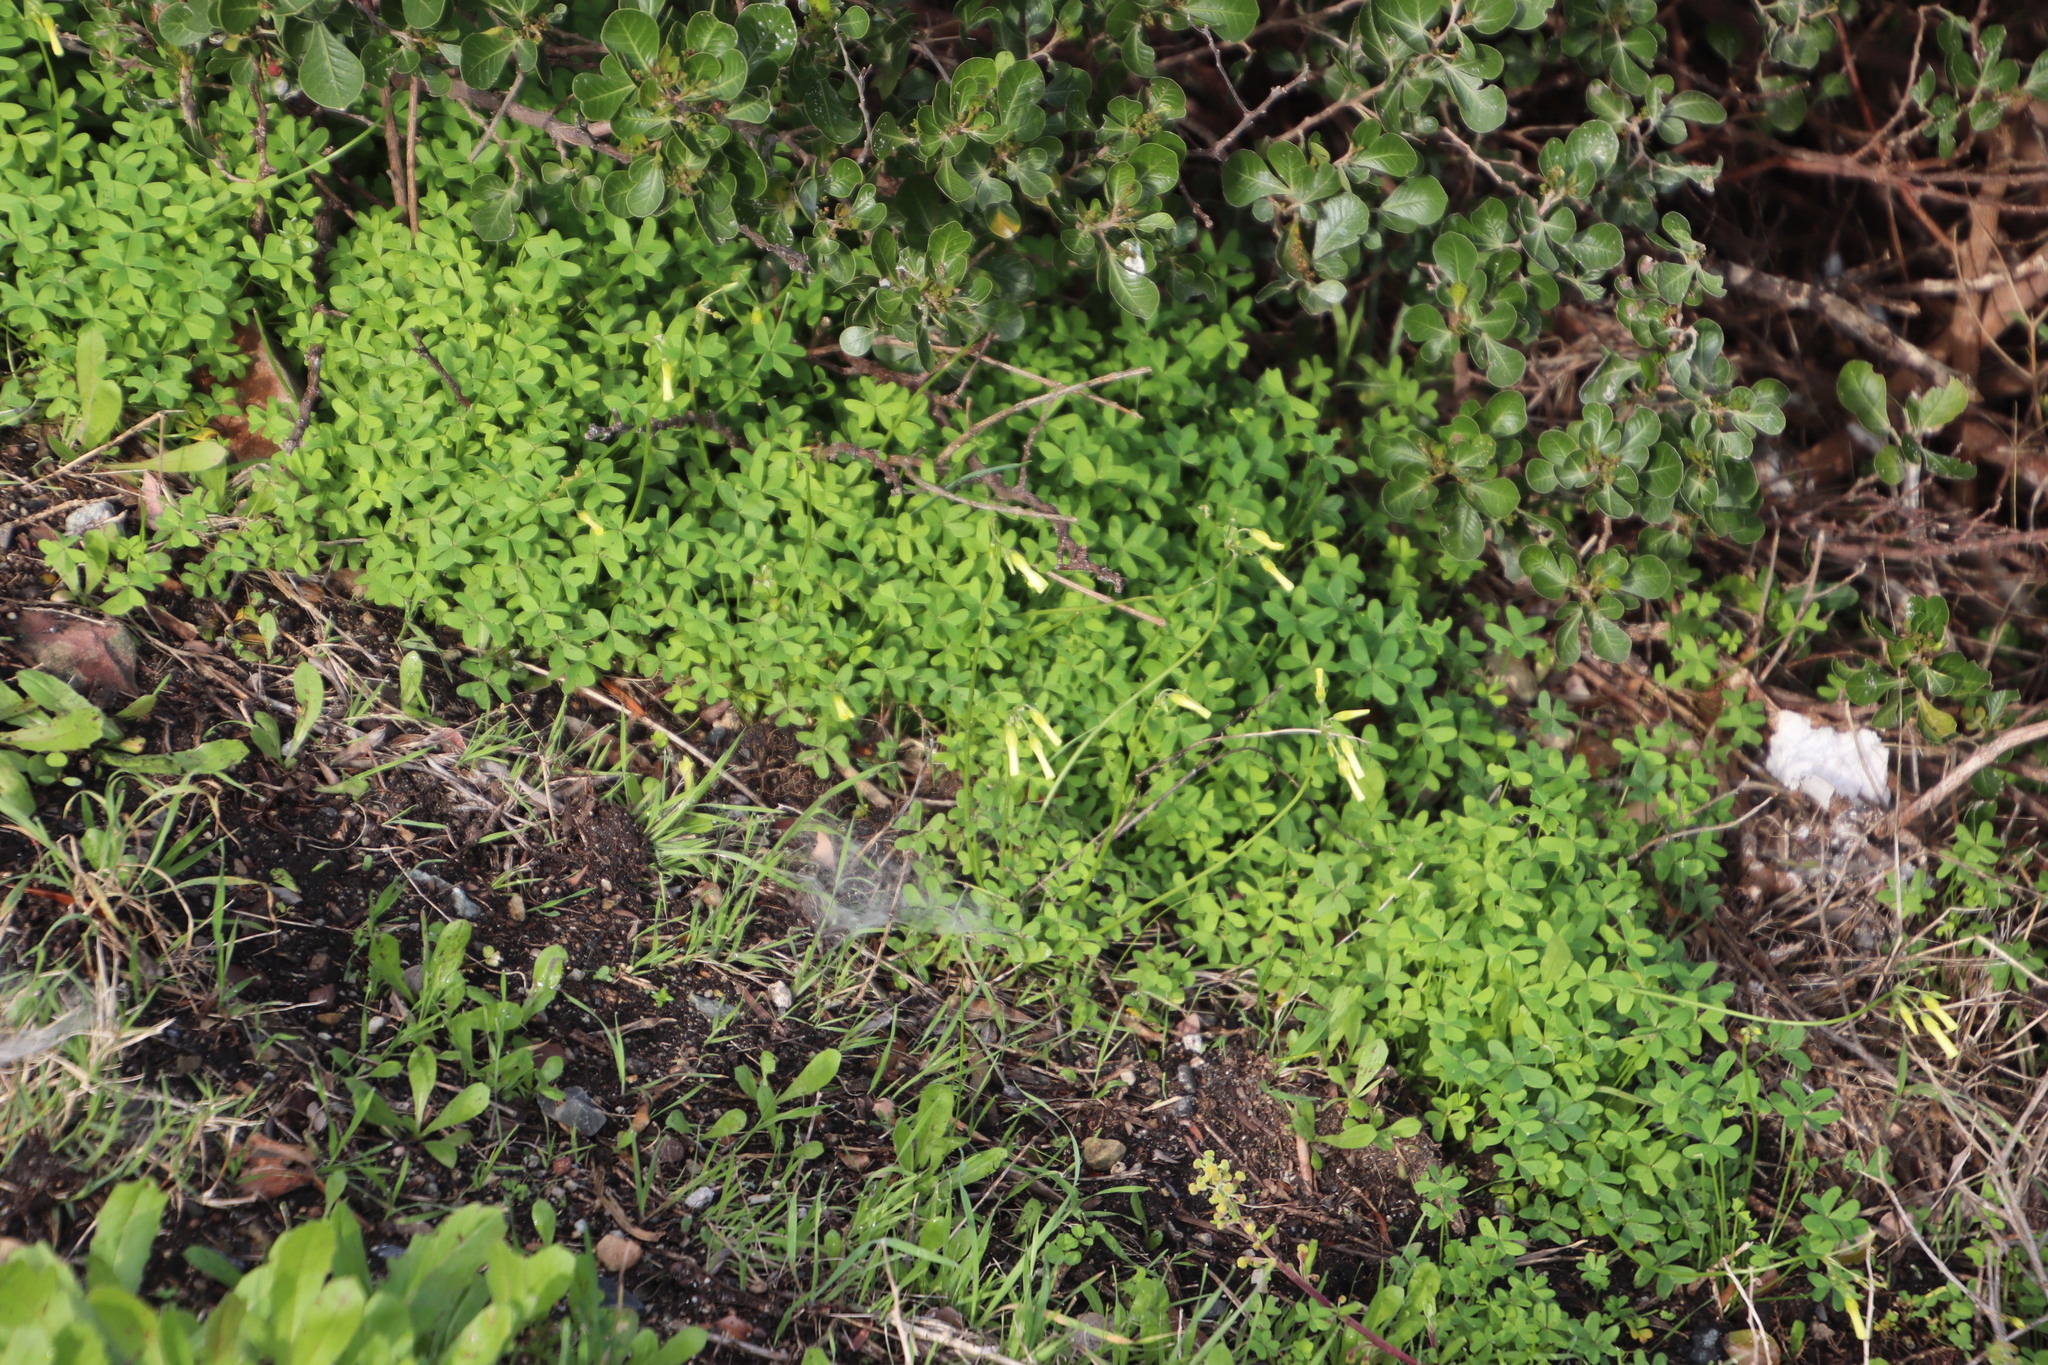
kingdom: Plantae
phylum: Tracheophyta
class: Magnoliopsida
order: Oxalidales
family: Oxalidaceae
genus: Oxalis
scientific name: Oxalis pes-caprae
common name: Bermuda-buttercup
